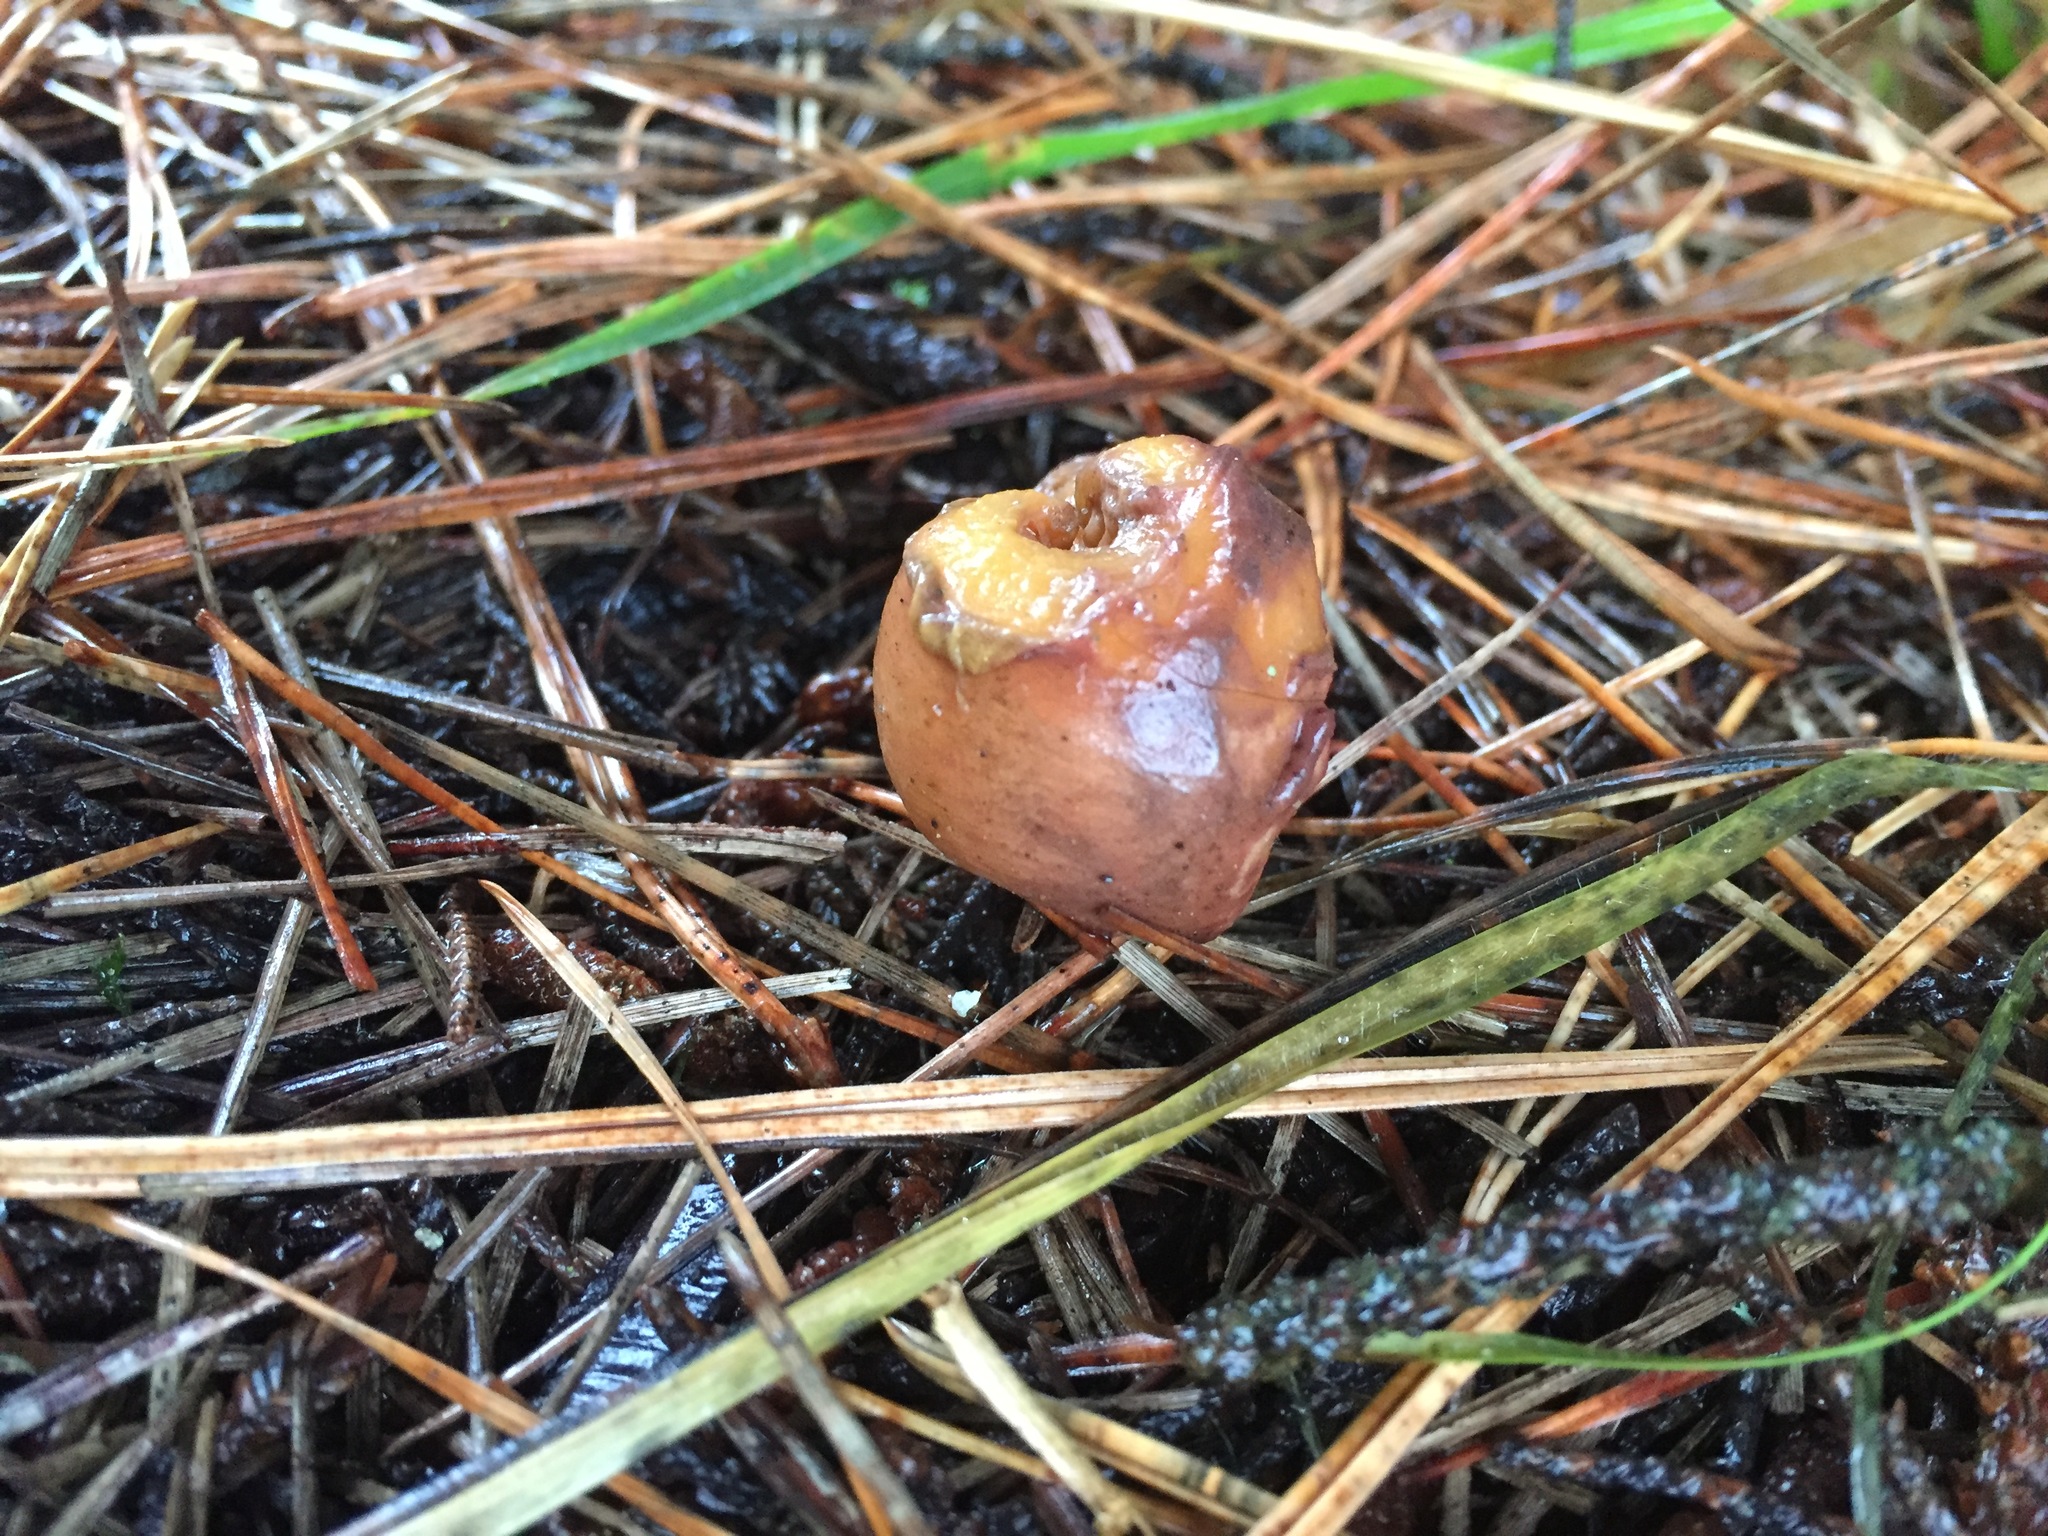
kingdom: Fungi
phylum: Basidiomycota
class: Agaricomycetes
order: Boletales
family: Gomphidiaceae
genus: Chroogomphus
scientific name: Chroogomphus vinicolor
